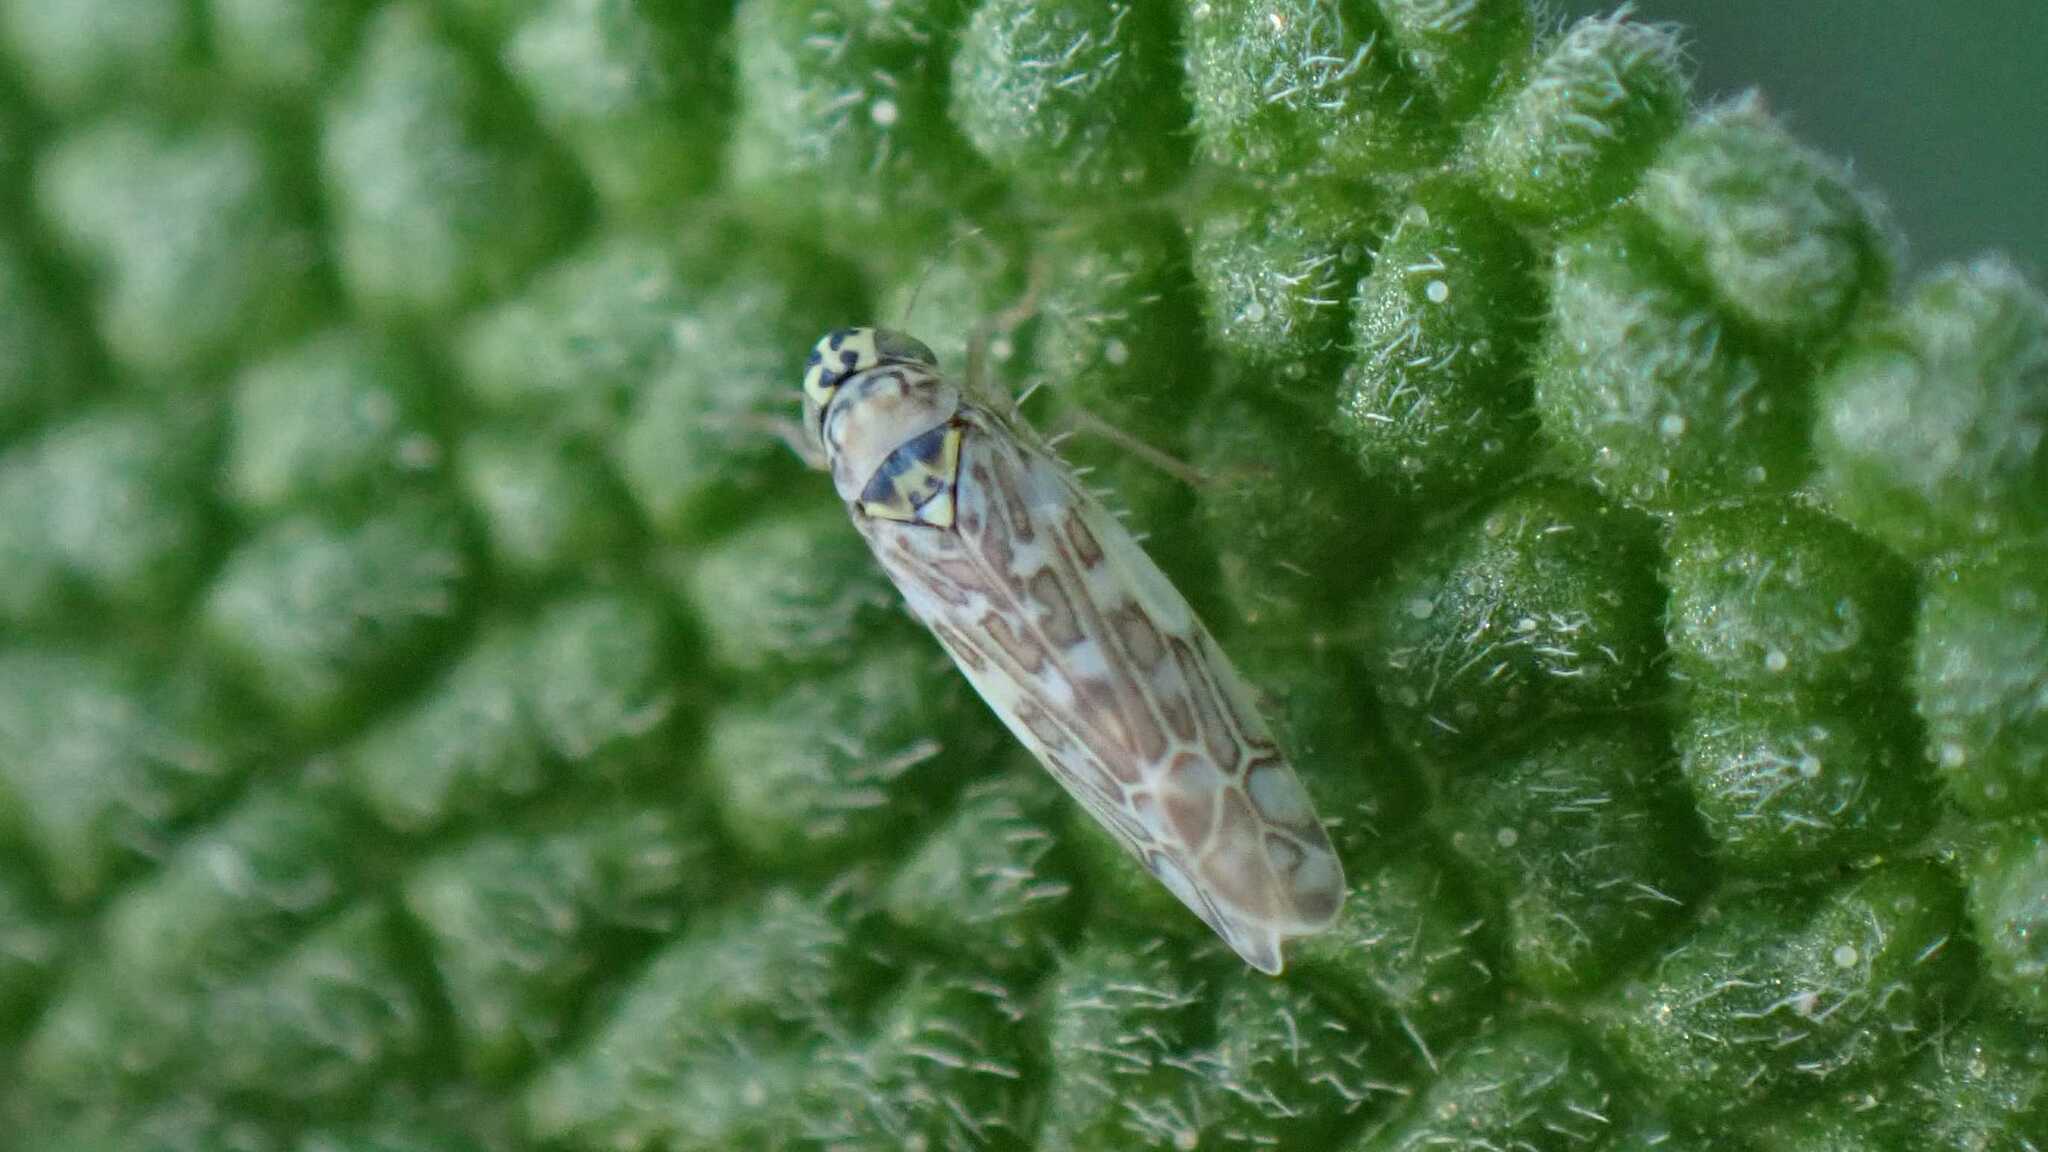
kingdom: Animalia
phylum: Arthropoda
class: Insecta
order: Hemiptera
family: Cicadellidae
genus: Eupteryx
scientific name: Eupteryx decemnotata
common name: Ligurian leafhopper
